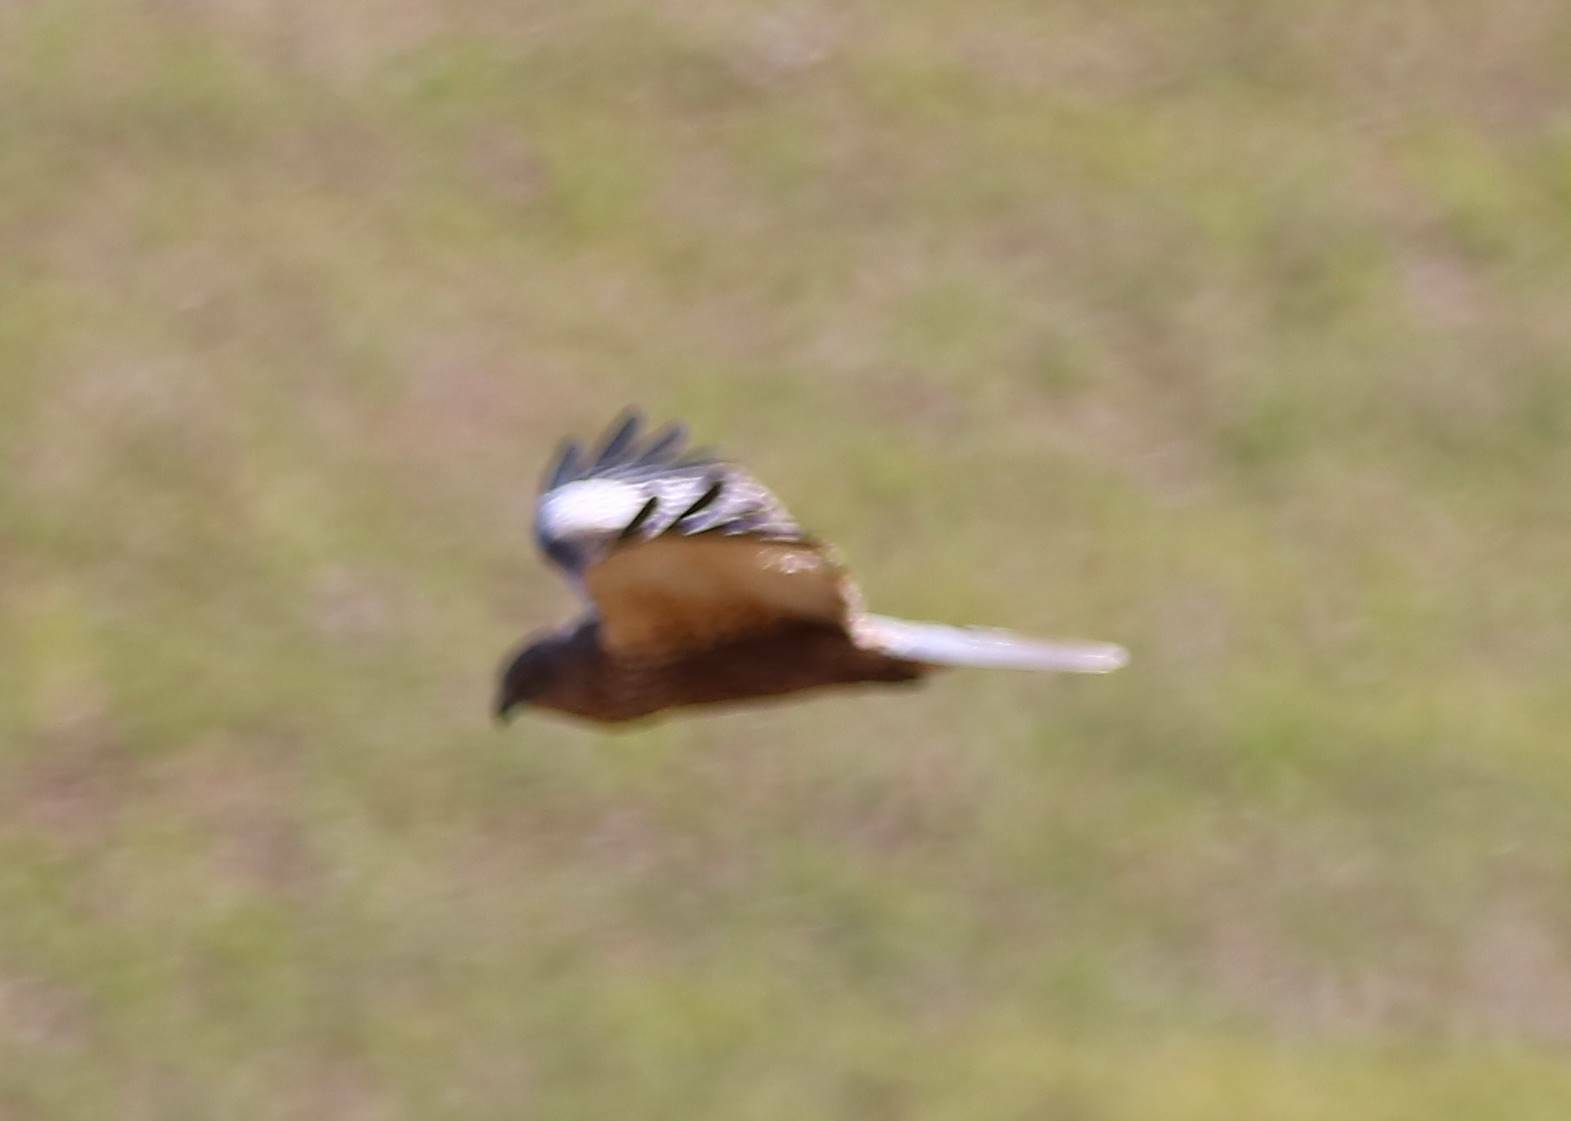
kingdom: Animalia
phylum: Chordata
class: Aves
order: Accipitriformes
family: Accipitridae
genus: Circus
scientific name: Circus aeruginosus
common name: Western marsh harrier
